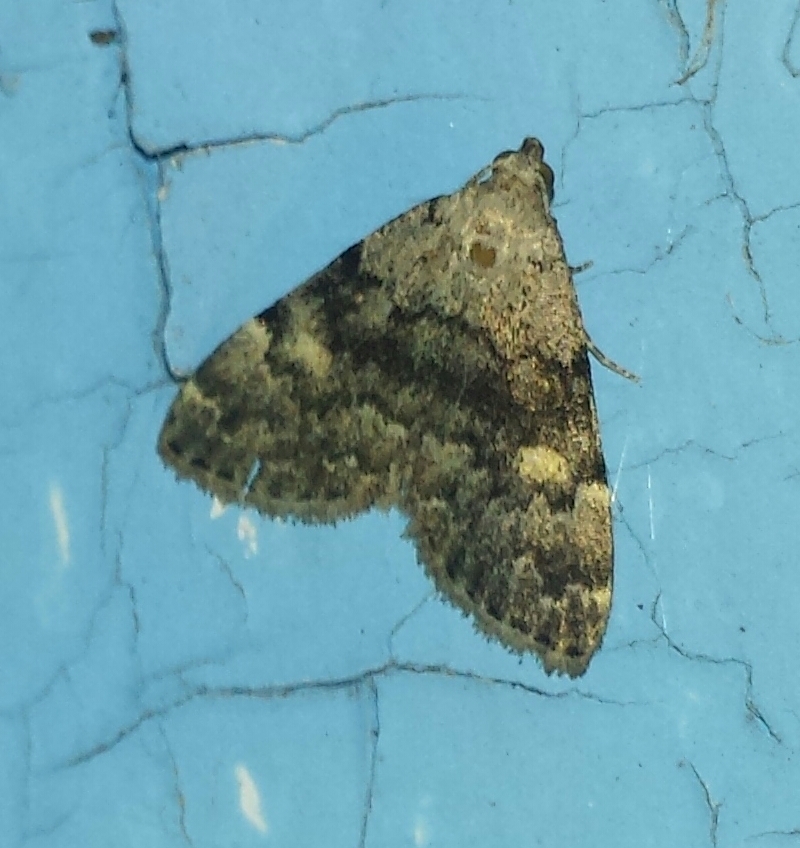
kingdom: Animalia
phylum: Arthropoda
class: Insecta
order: Lepidoptera
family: Erebidae
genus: Idia
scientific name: Idia aemula
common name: Common idia moth
